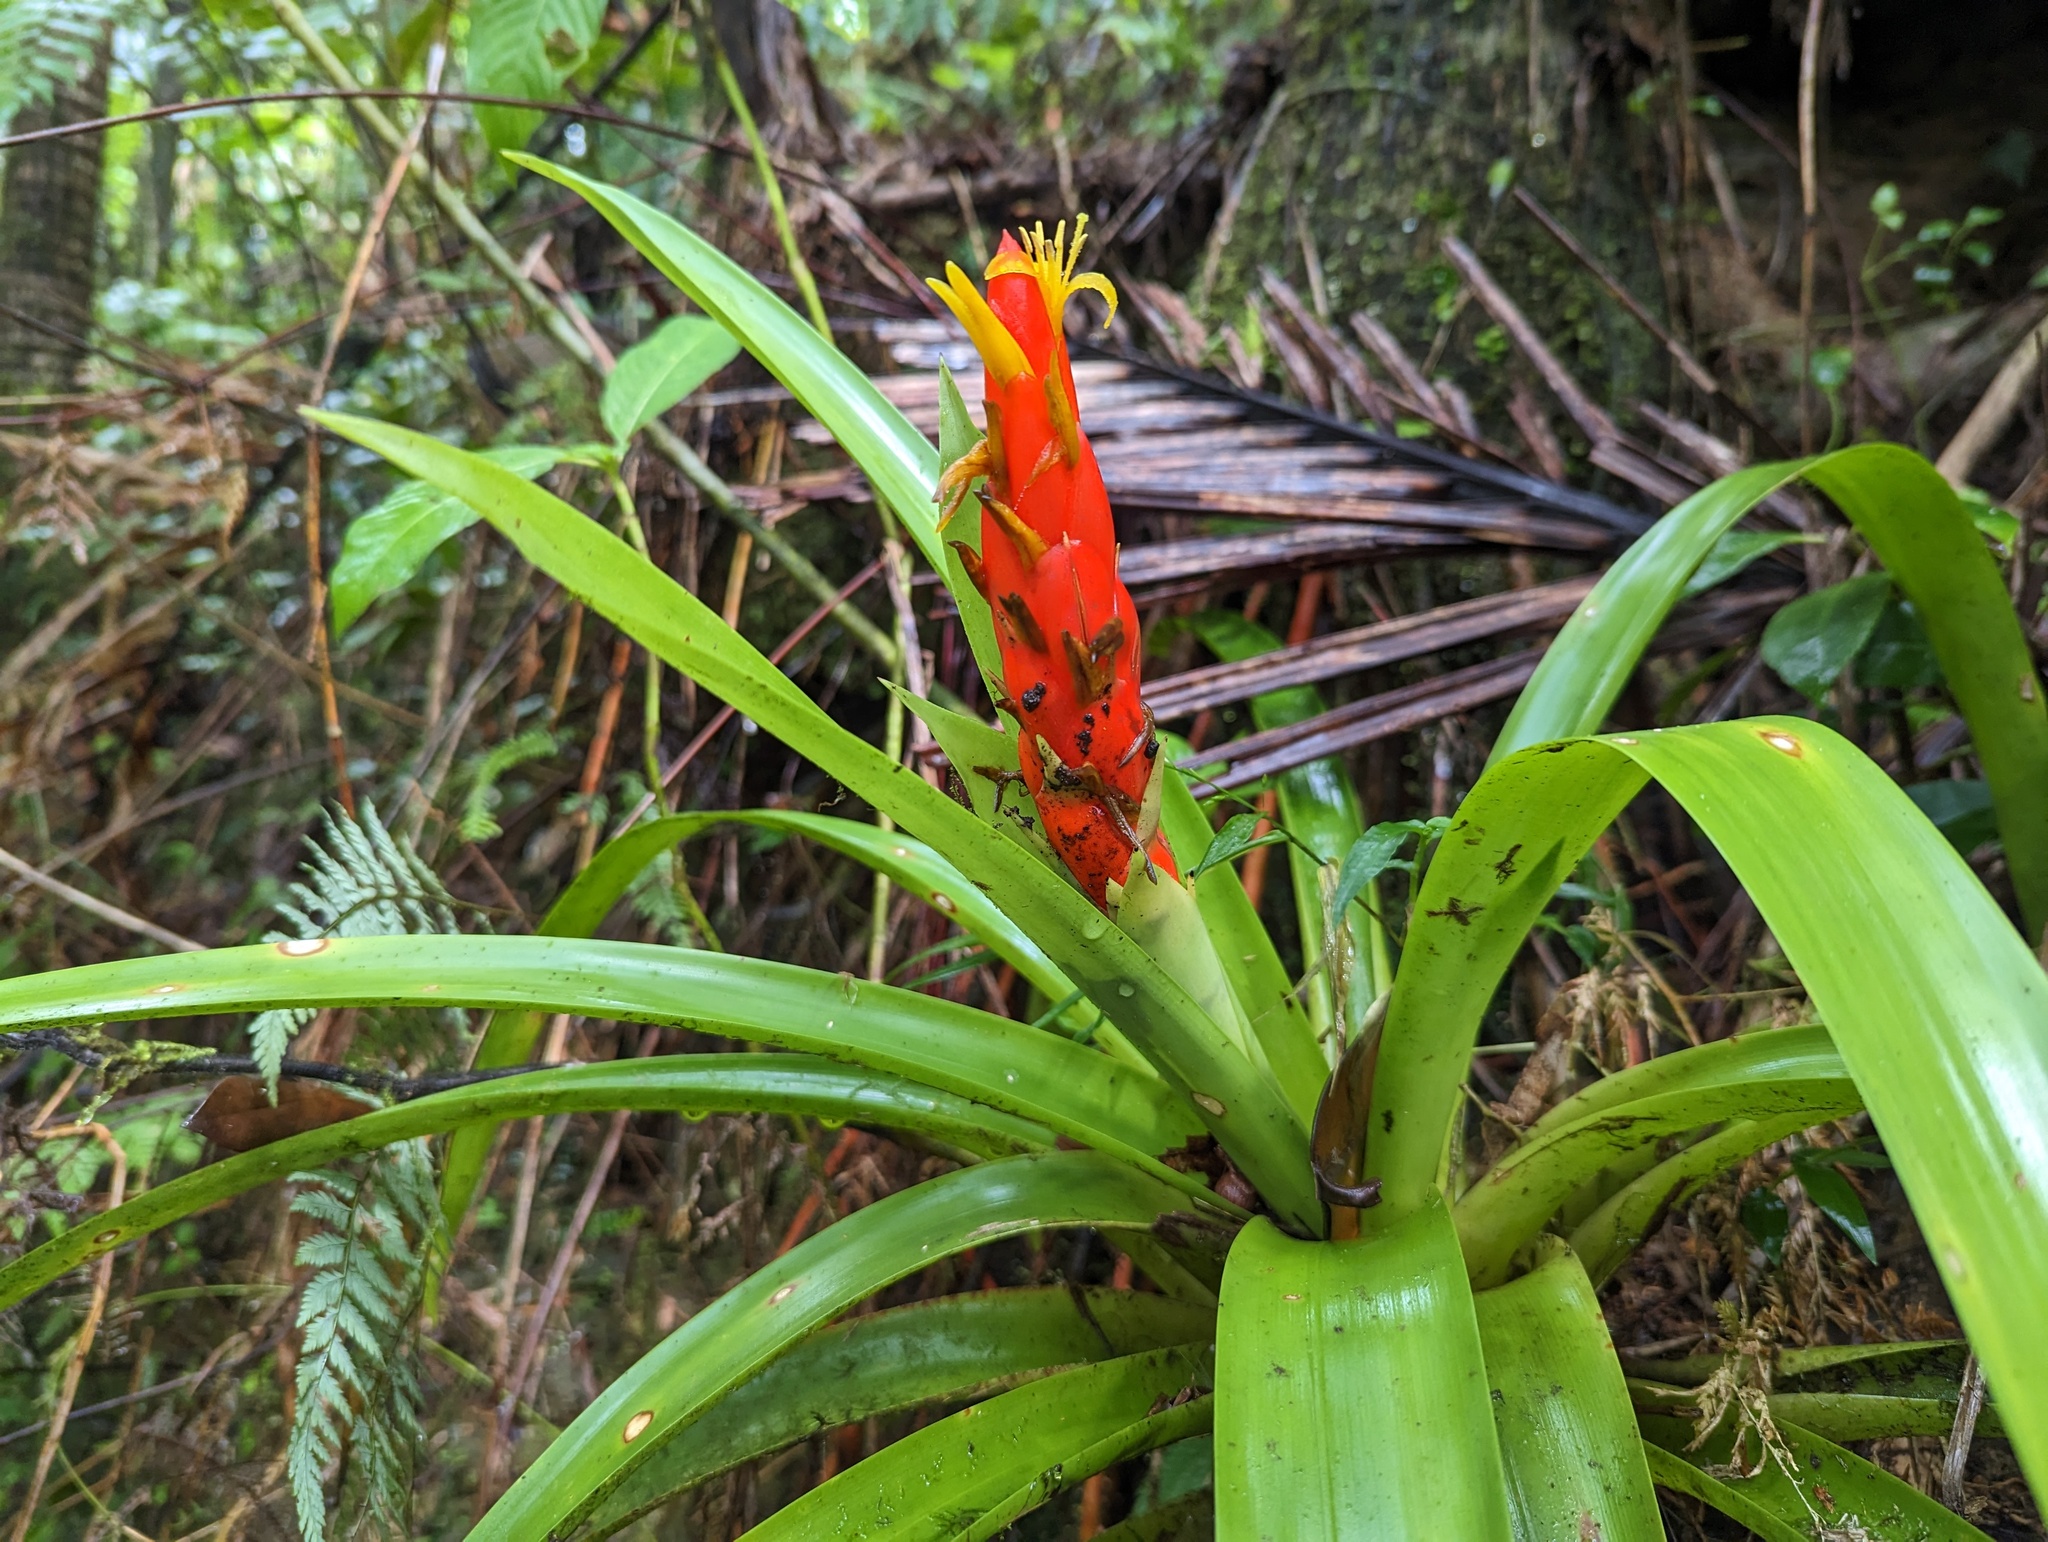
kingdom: Plantae
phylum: Tracheophyta
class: Liliopsida
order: Poales
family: Bromeliaceae
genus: Guzmania
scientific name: Guzmania berteroniana
